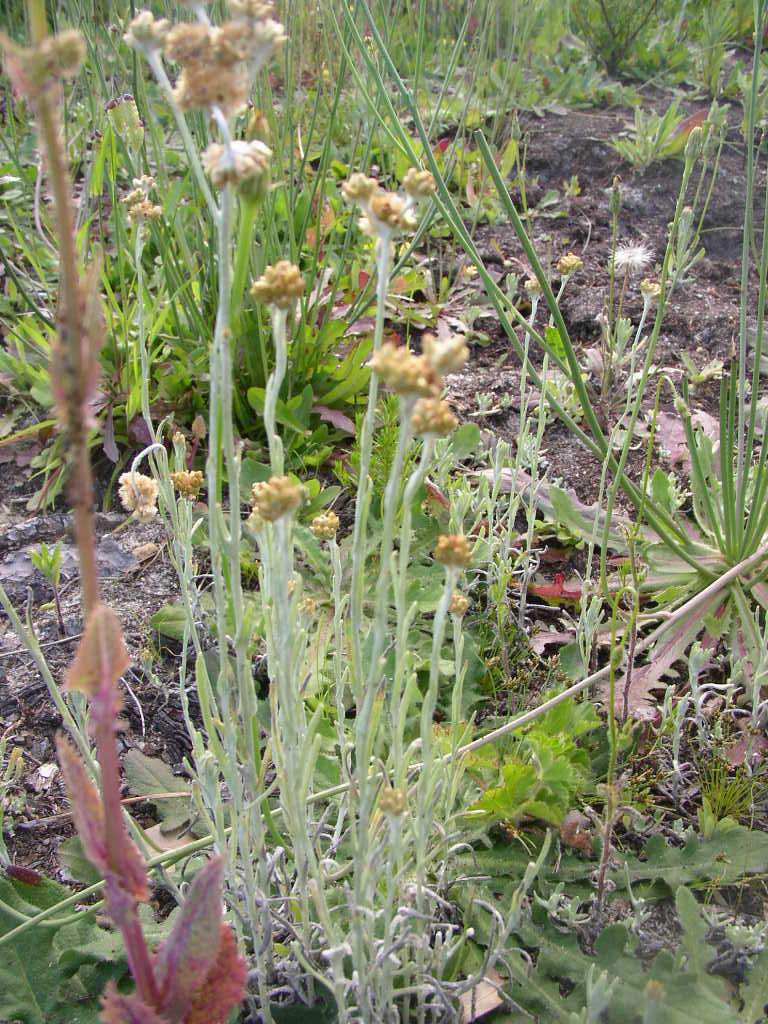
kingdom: Plantae
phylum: Tracheophyta
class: Magnoliopsida
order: Asterales
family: Asteraceae
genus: Helichrysum
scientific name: Helichrysum luteoalbum
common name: Daisy
